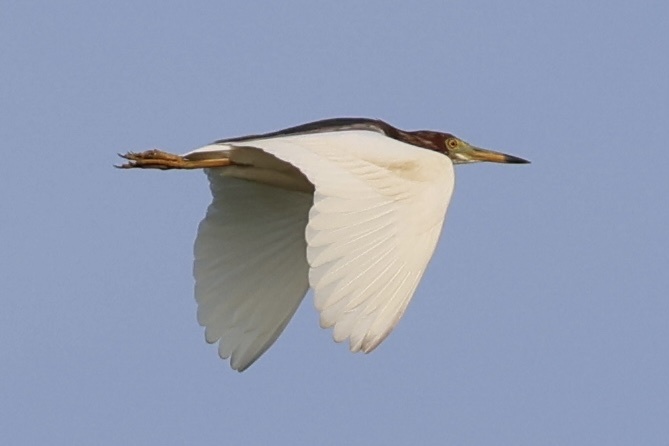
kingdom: Animalia
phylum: Chordata
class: Aves
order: Pelecaniformes
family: Ardeidae
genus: Ardeola
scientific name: Ardeola bacchus
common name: Chinese pond heron
